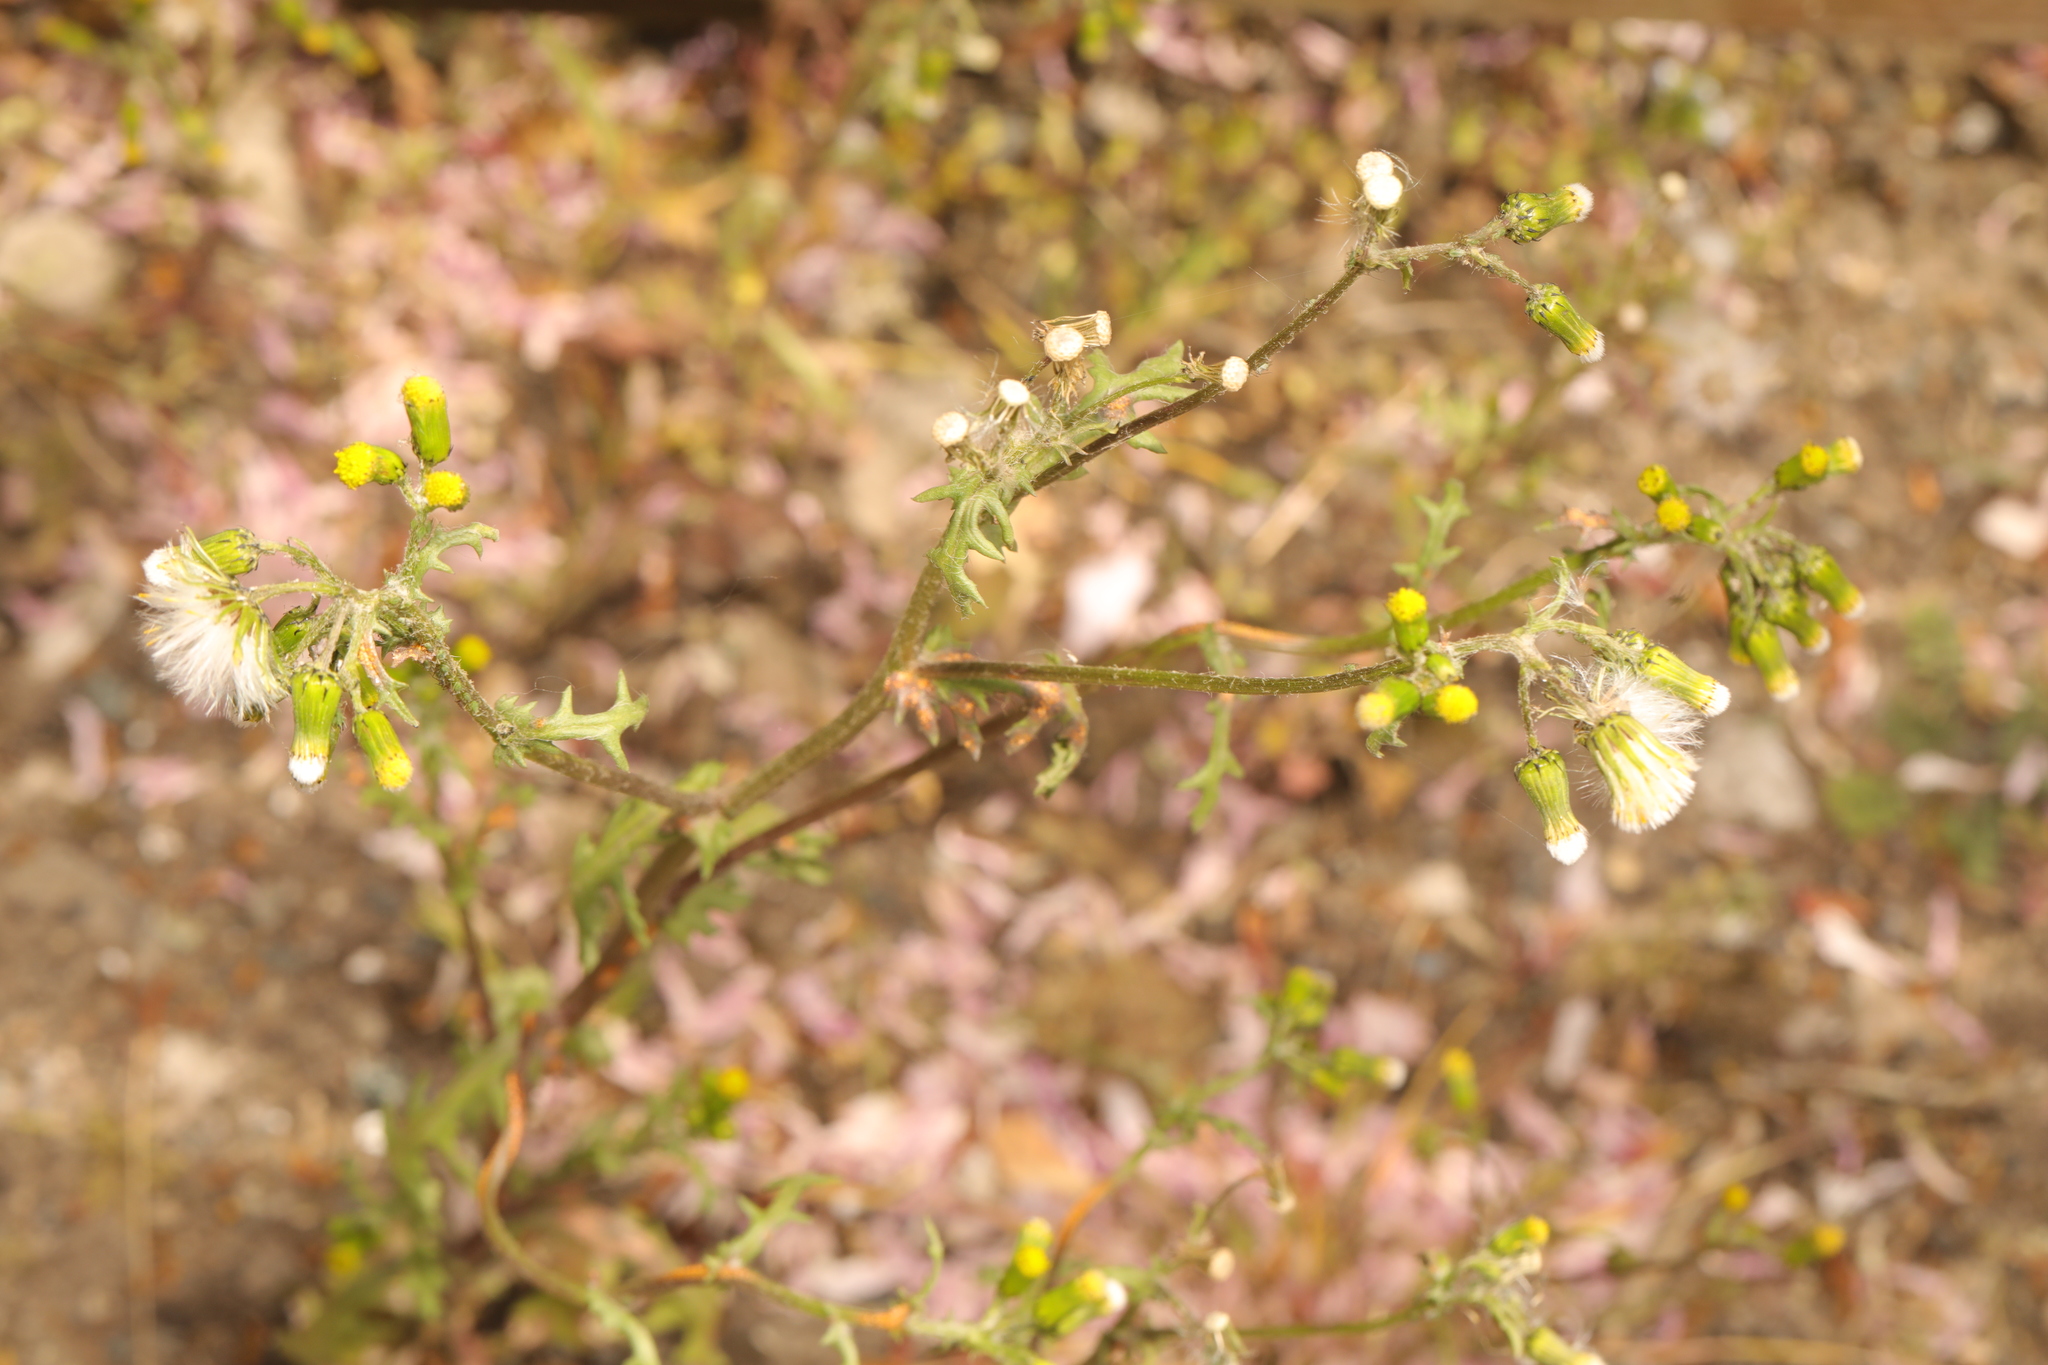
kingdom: Plantae
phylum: Tracheophyta
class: Magnoliopsida
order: Asterales
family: Asteraceae
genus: Senecio
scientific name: Senecio vulgaris
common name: Old-man-in-the-spring
